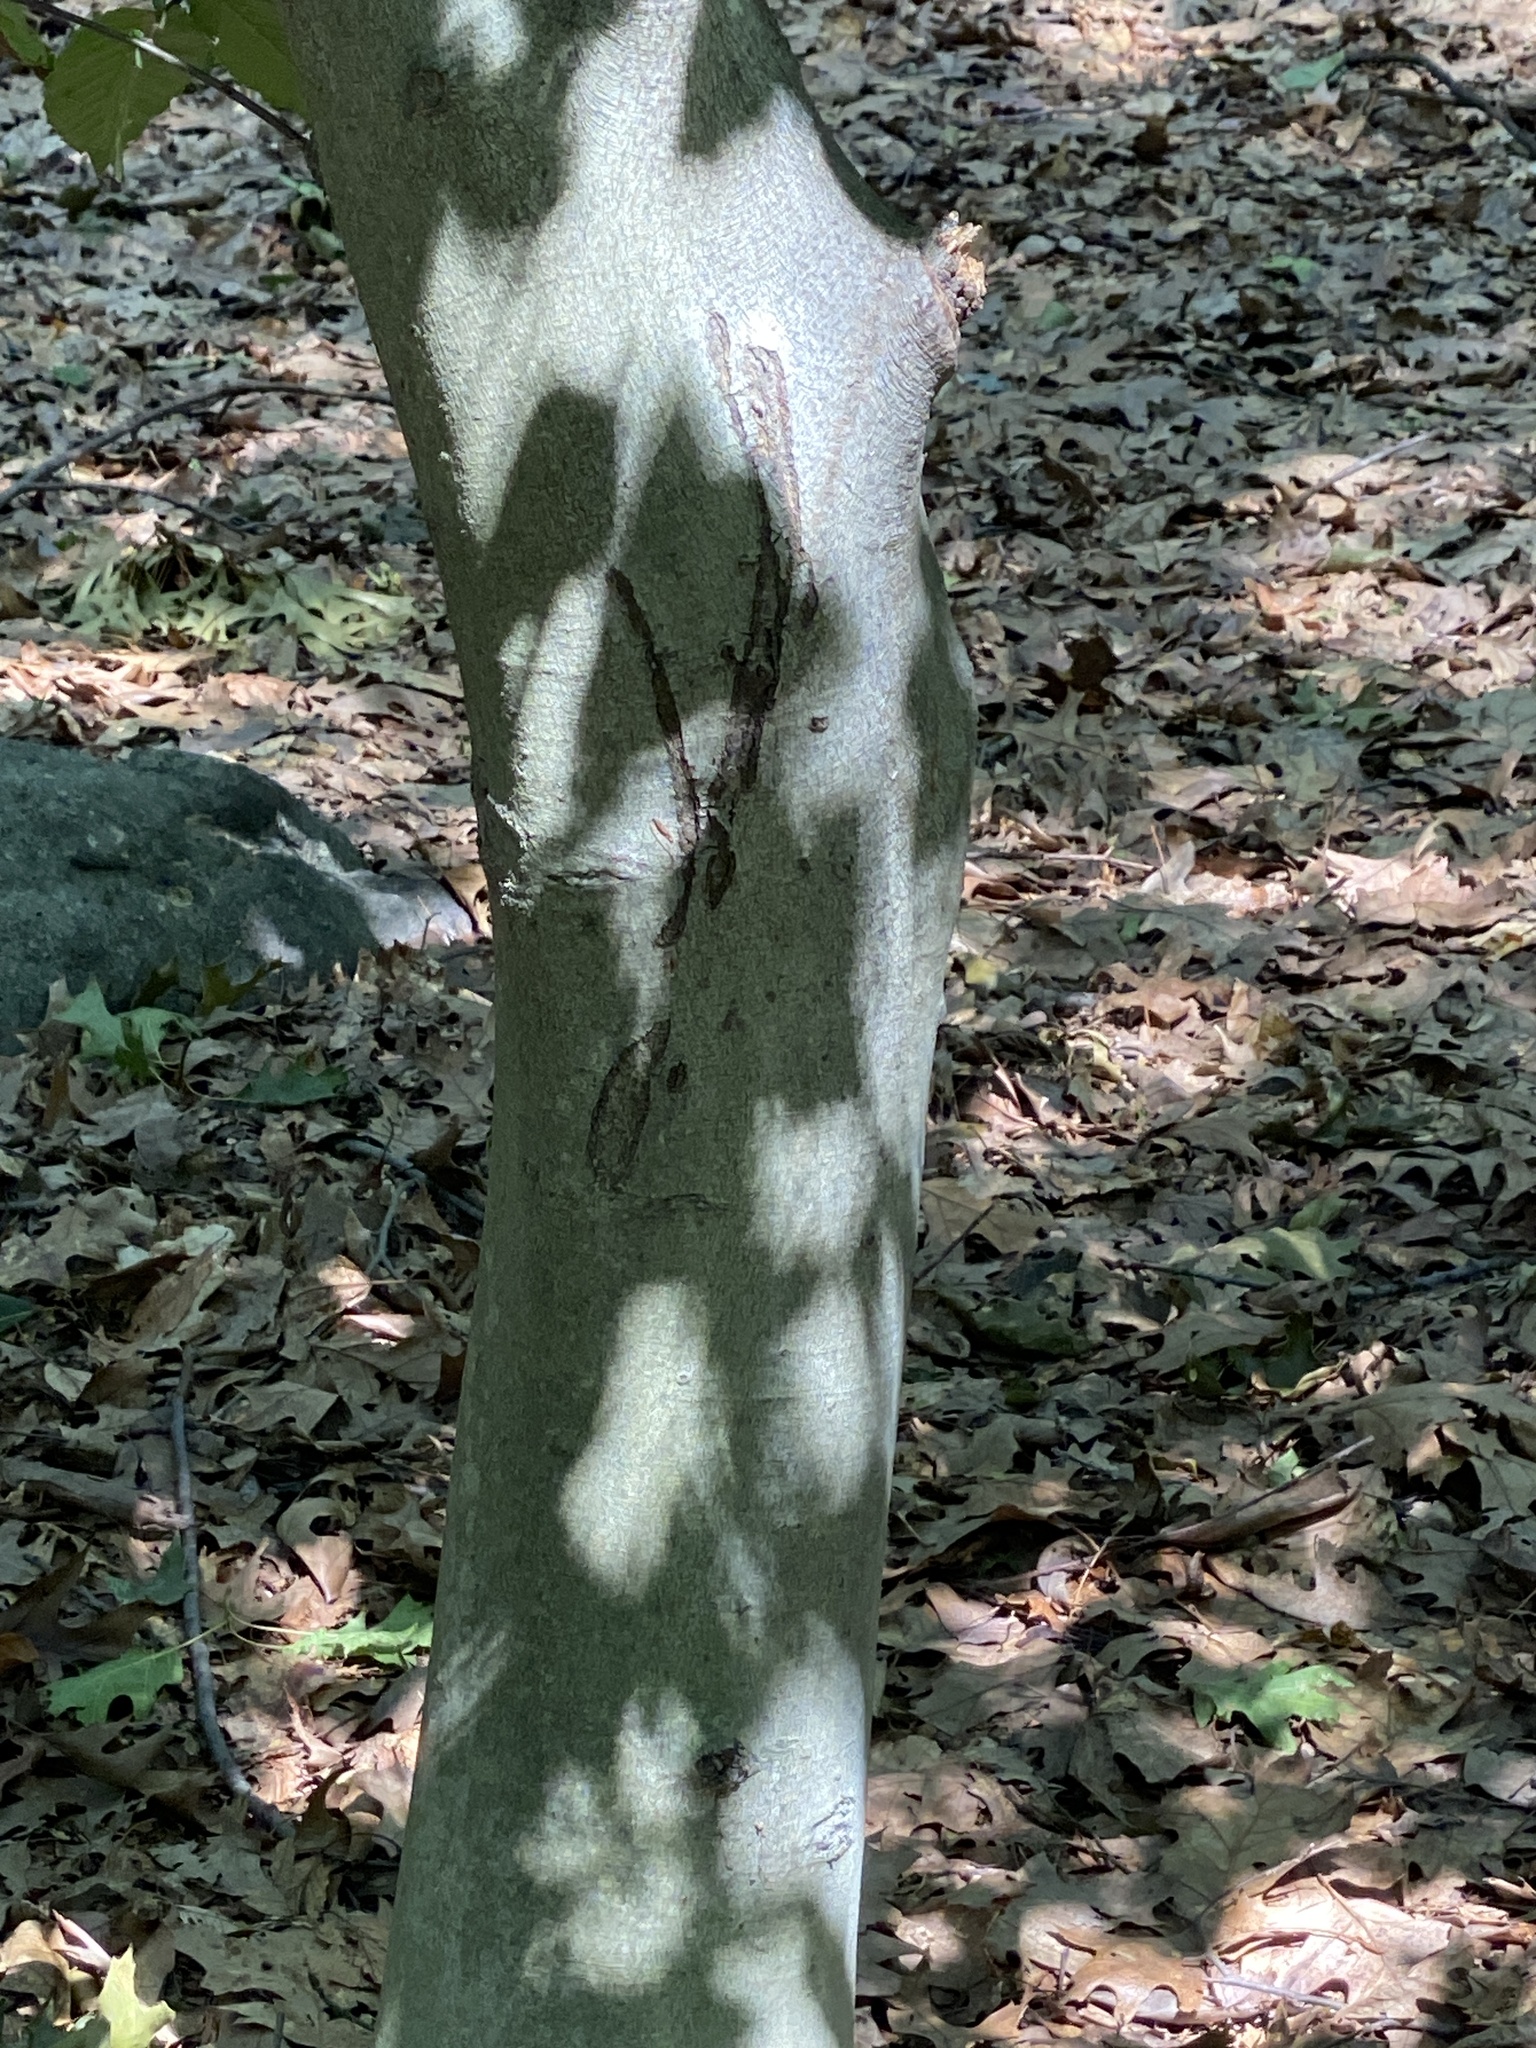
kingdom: Plantae
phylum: Tracheophyta
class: Magnoliopsida
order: Fagales
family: Fagaceae
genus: Fagus
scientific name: Fagus grandifolia
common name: American beech
